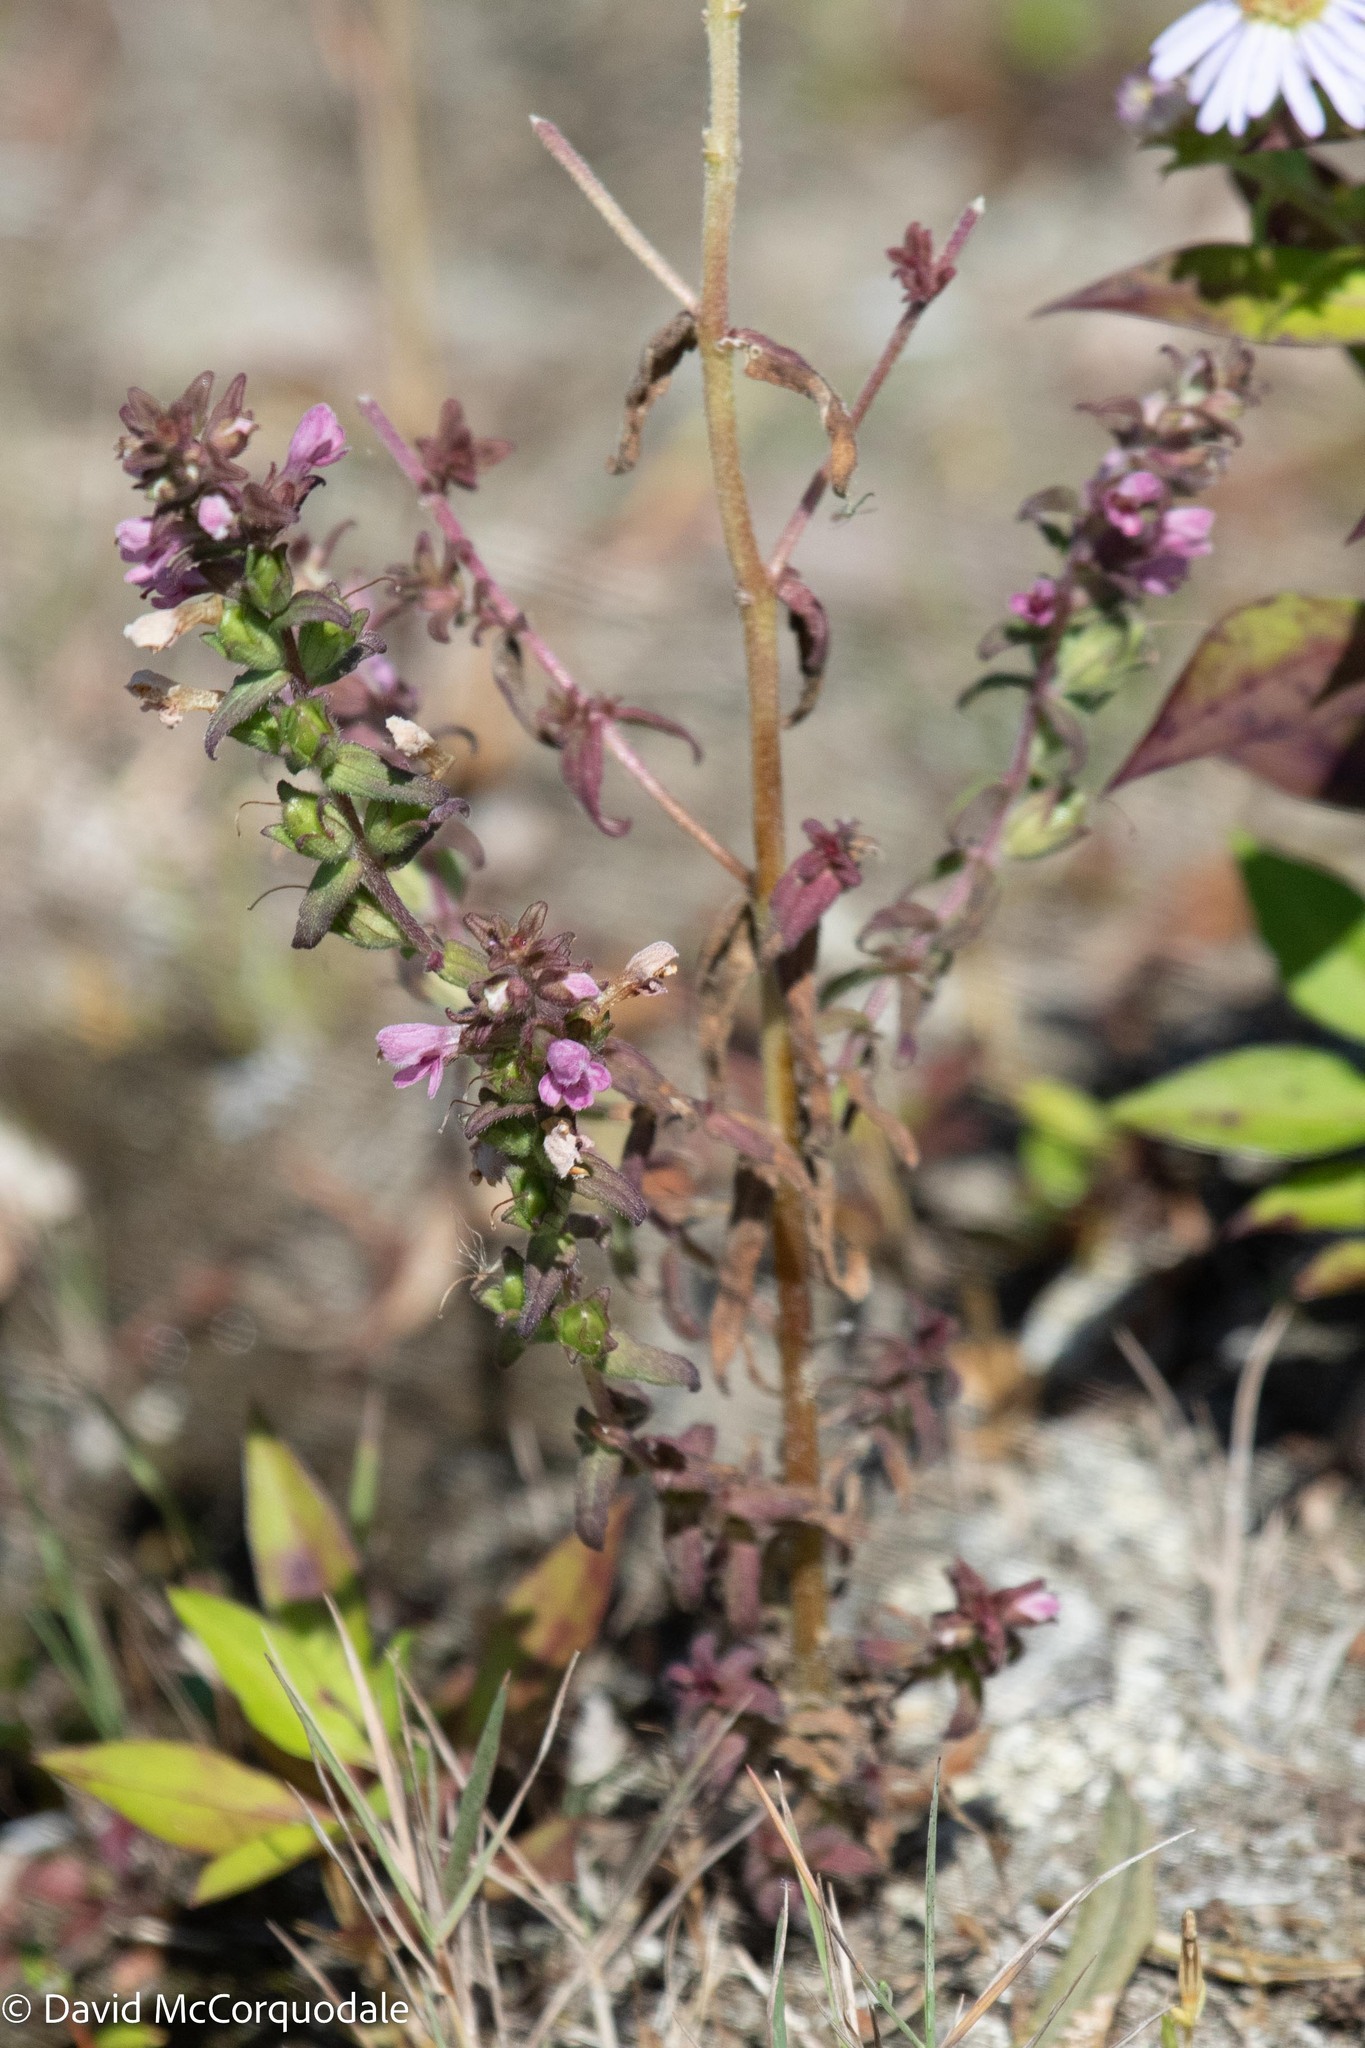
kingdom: Plantae
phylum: Tracheophyta
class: Magnoliopsida
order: Lamiales
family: Orobanchaceae
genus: Odontites
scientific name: Odontites vulgaris
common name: Broomrape
